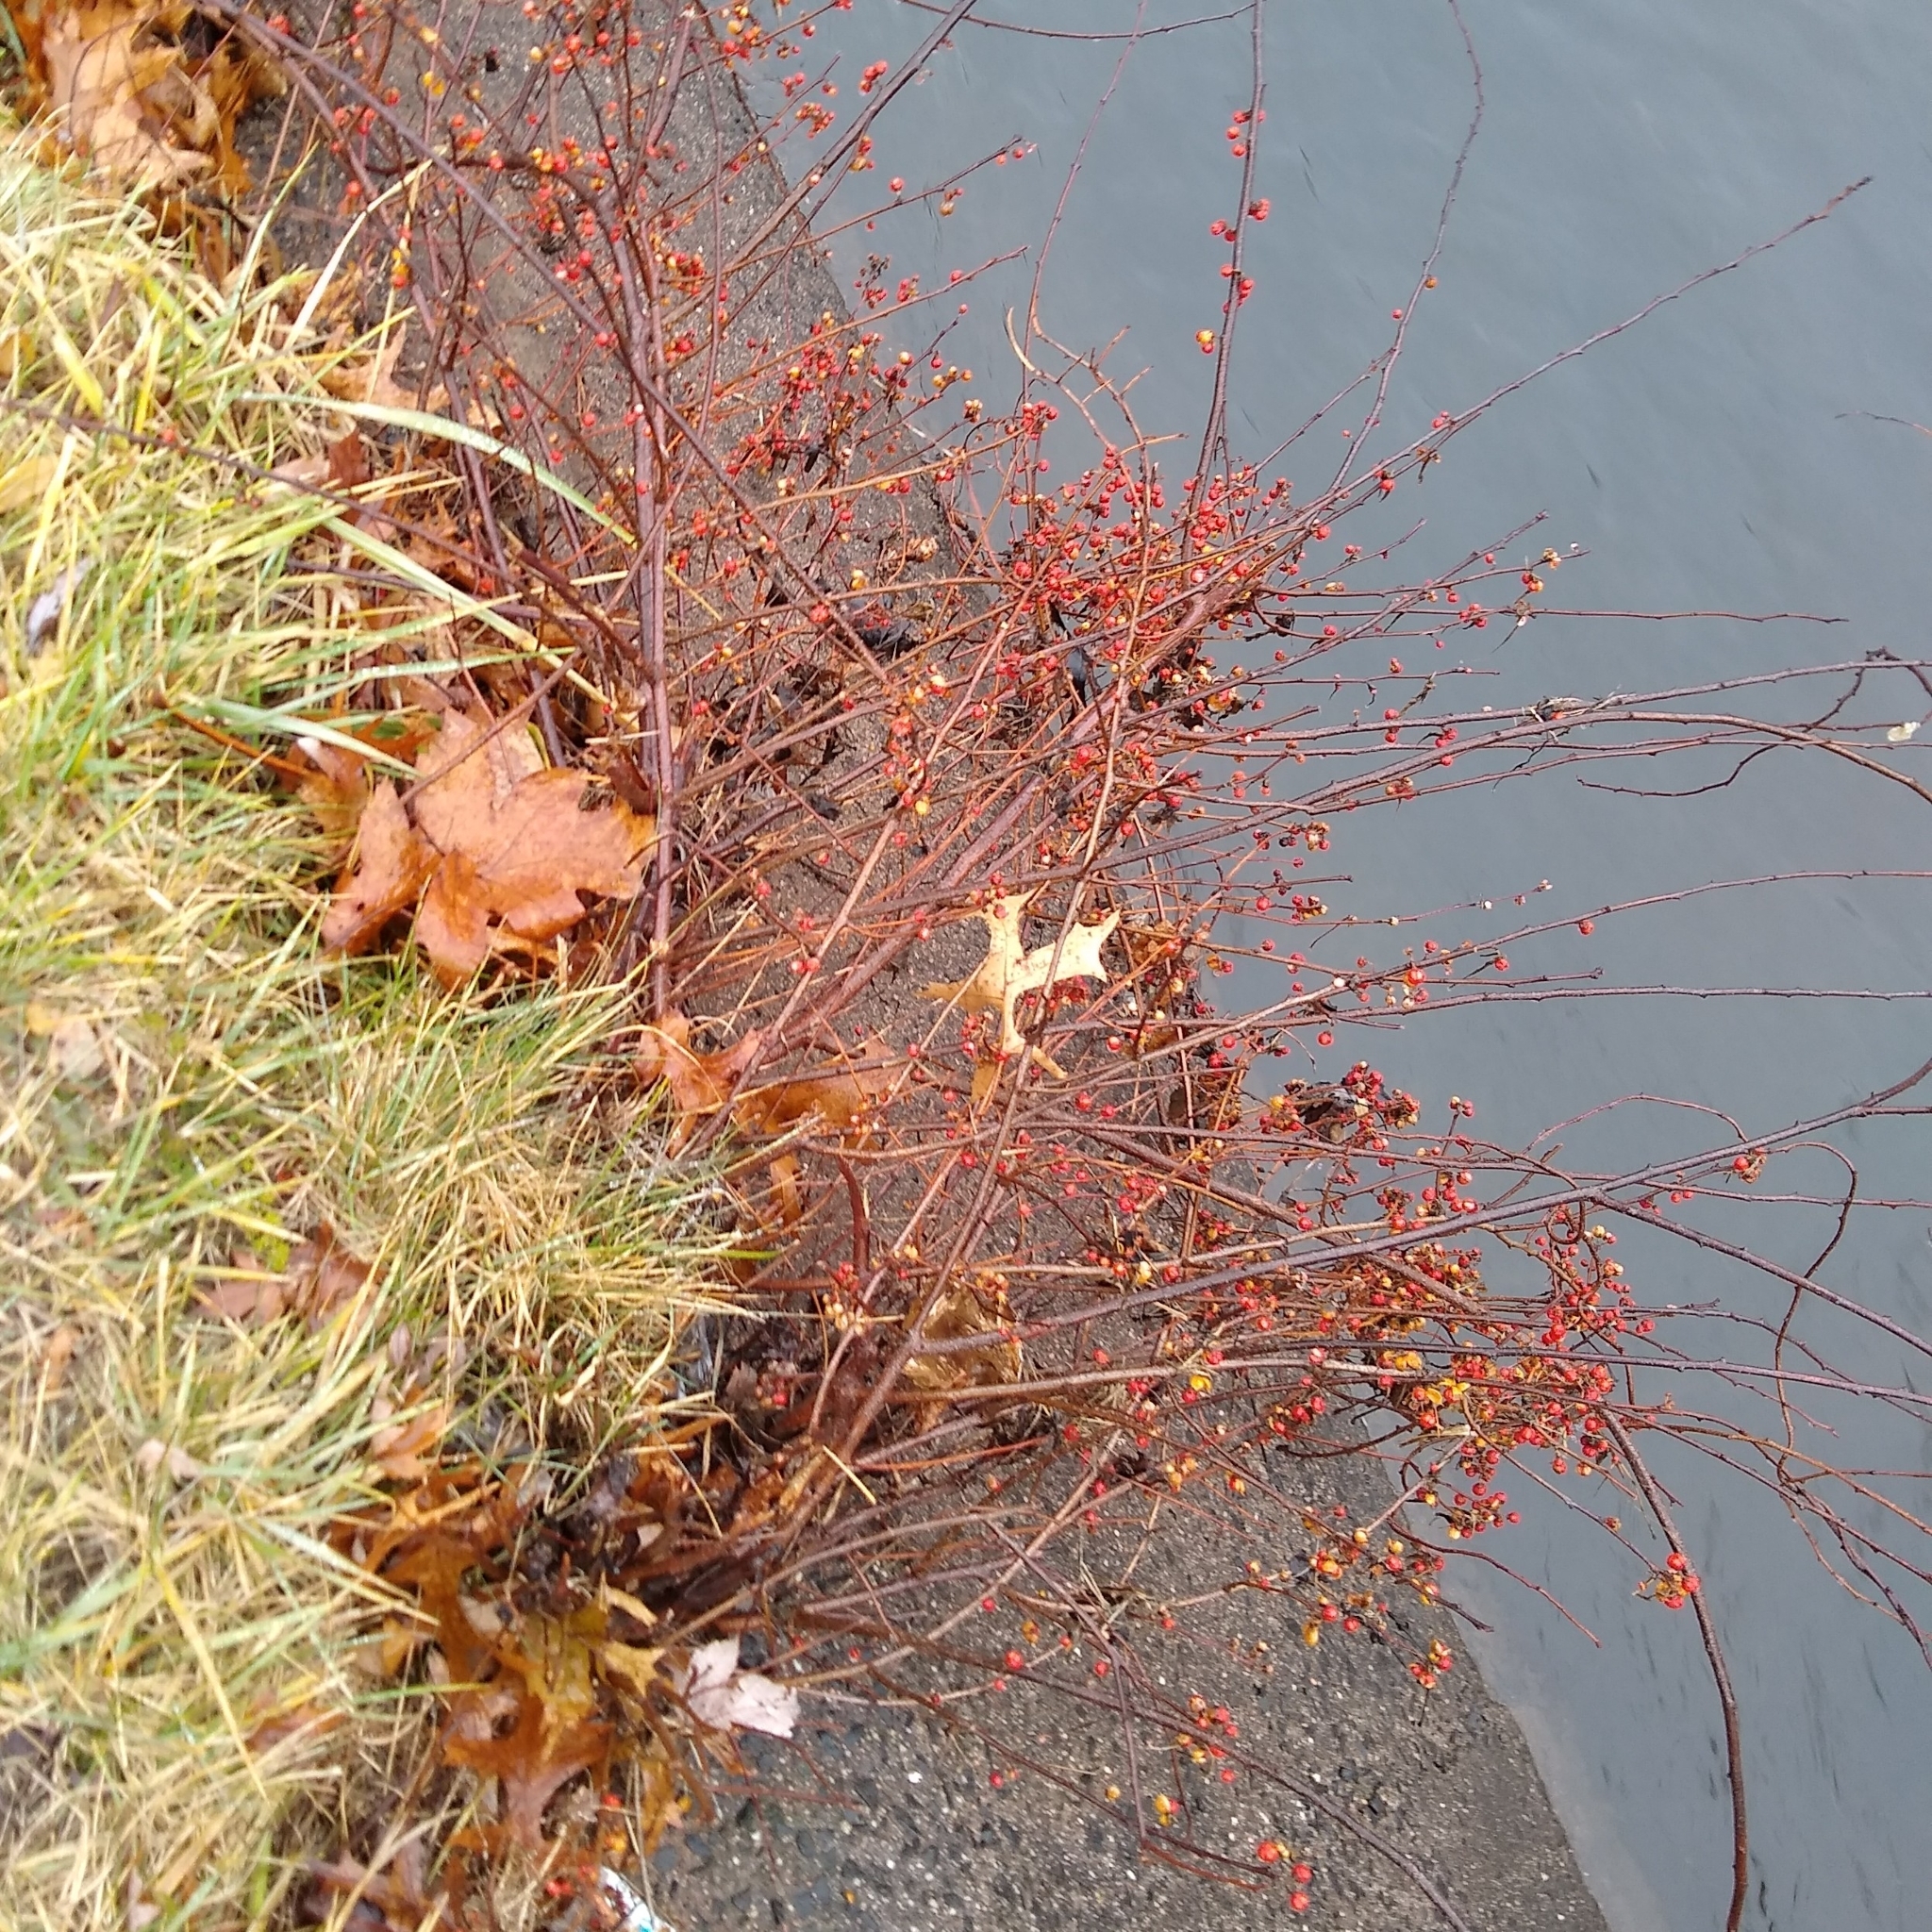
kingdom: Plantae
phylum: Tracheophyta
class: Magnoliopsida
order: Celastrales
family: Celastraceae
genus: Celastrus
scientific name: Celastrus orbiculatus
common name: Oriental bittersweet
